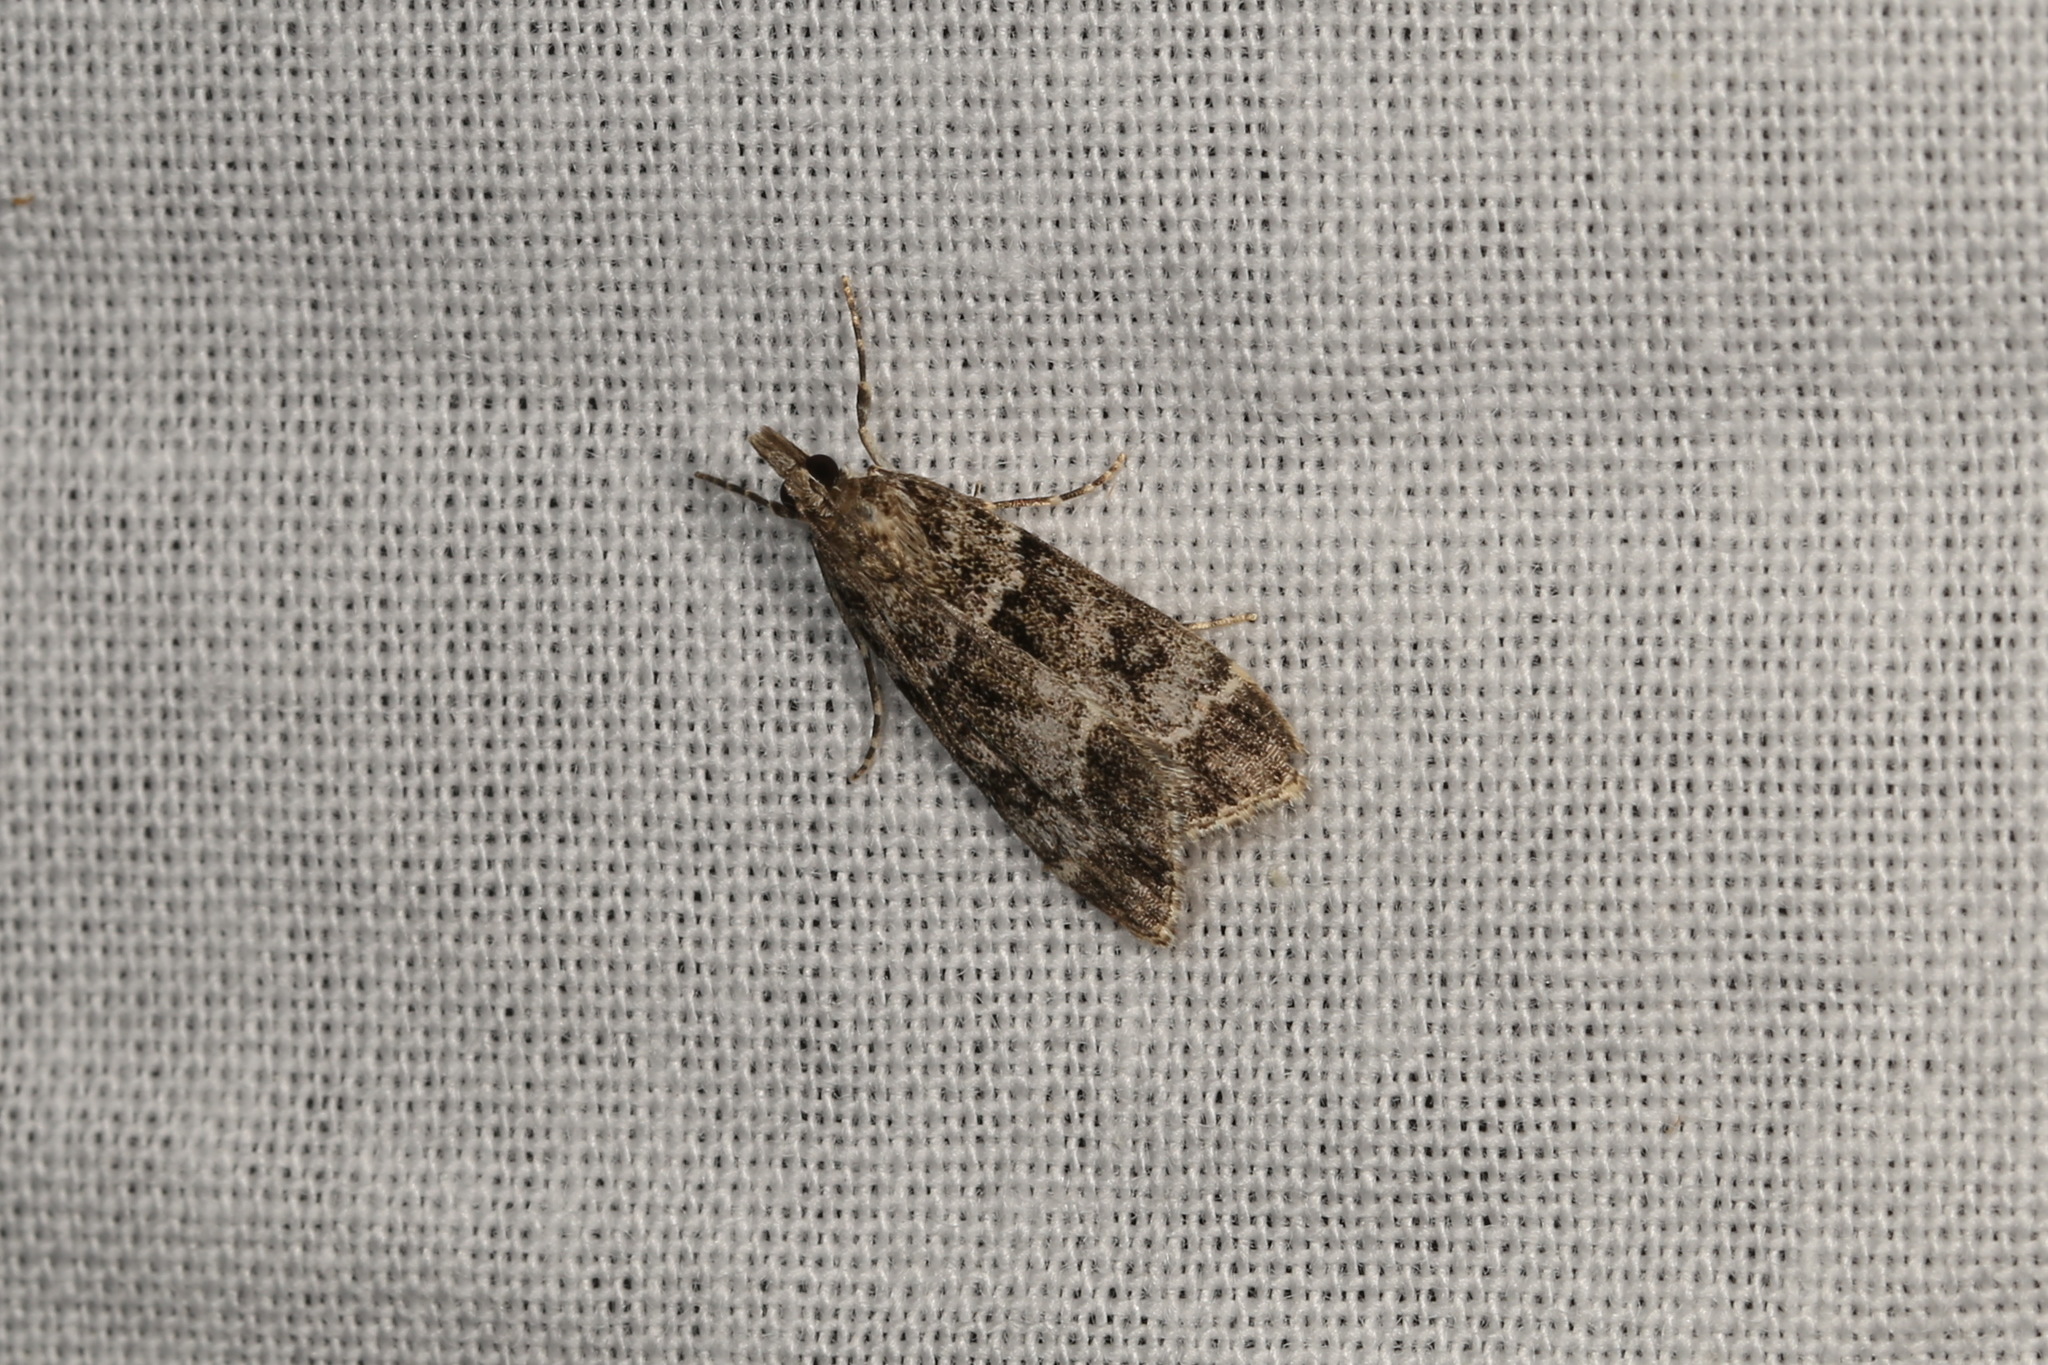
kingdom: Animalia
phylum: Arthropoda
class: Insecta
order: Lepidoptera
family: Crambidae
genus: Eudonia
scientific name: Eudonia mercurella
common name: Small grey
